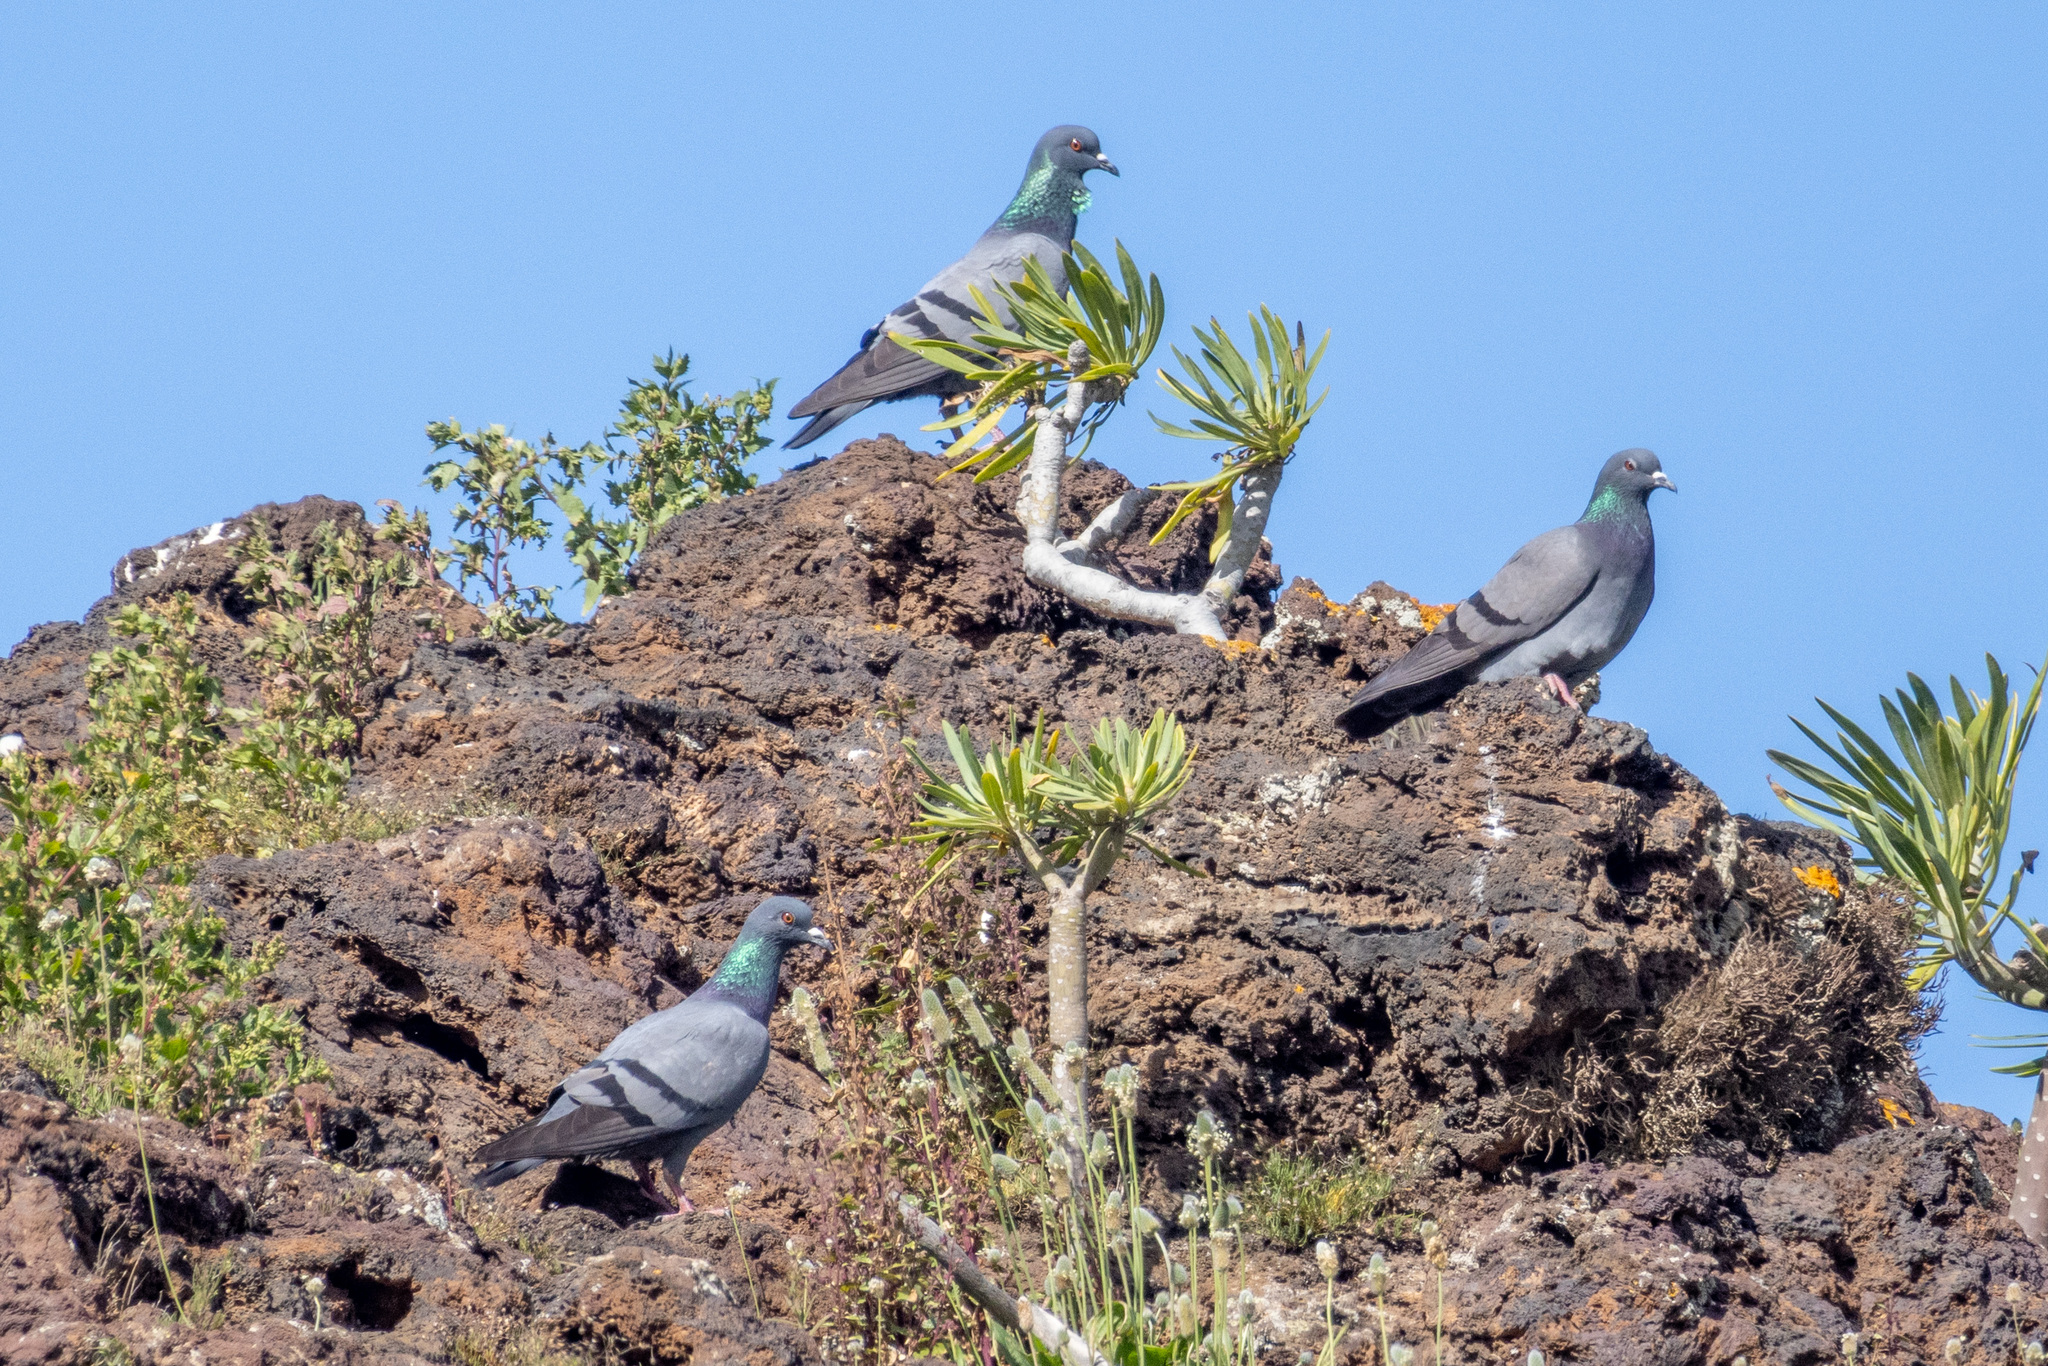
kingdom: Animalia
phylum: Chordata
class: Aves
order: Columbiformes
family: Columbidae
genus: Columba
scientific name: Columba livia
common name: Rock pigeon
